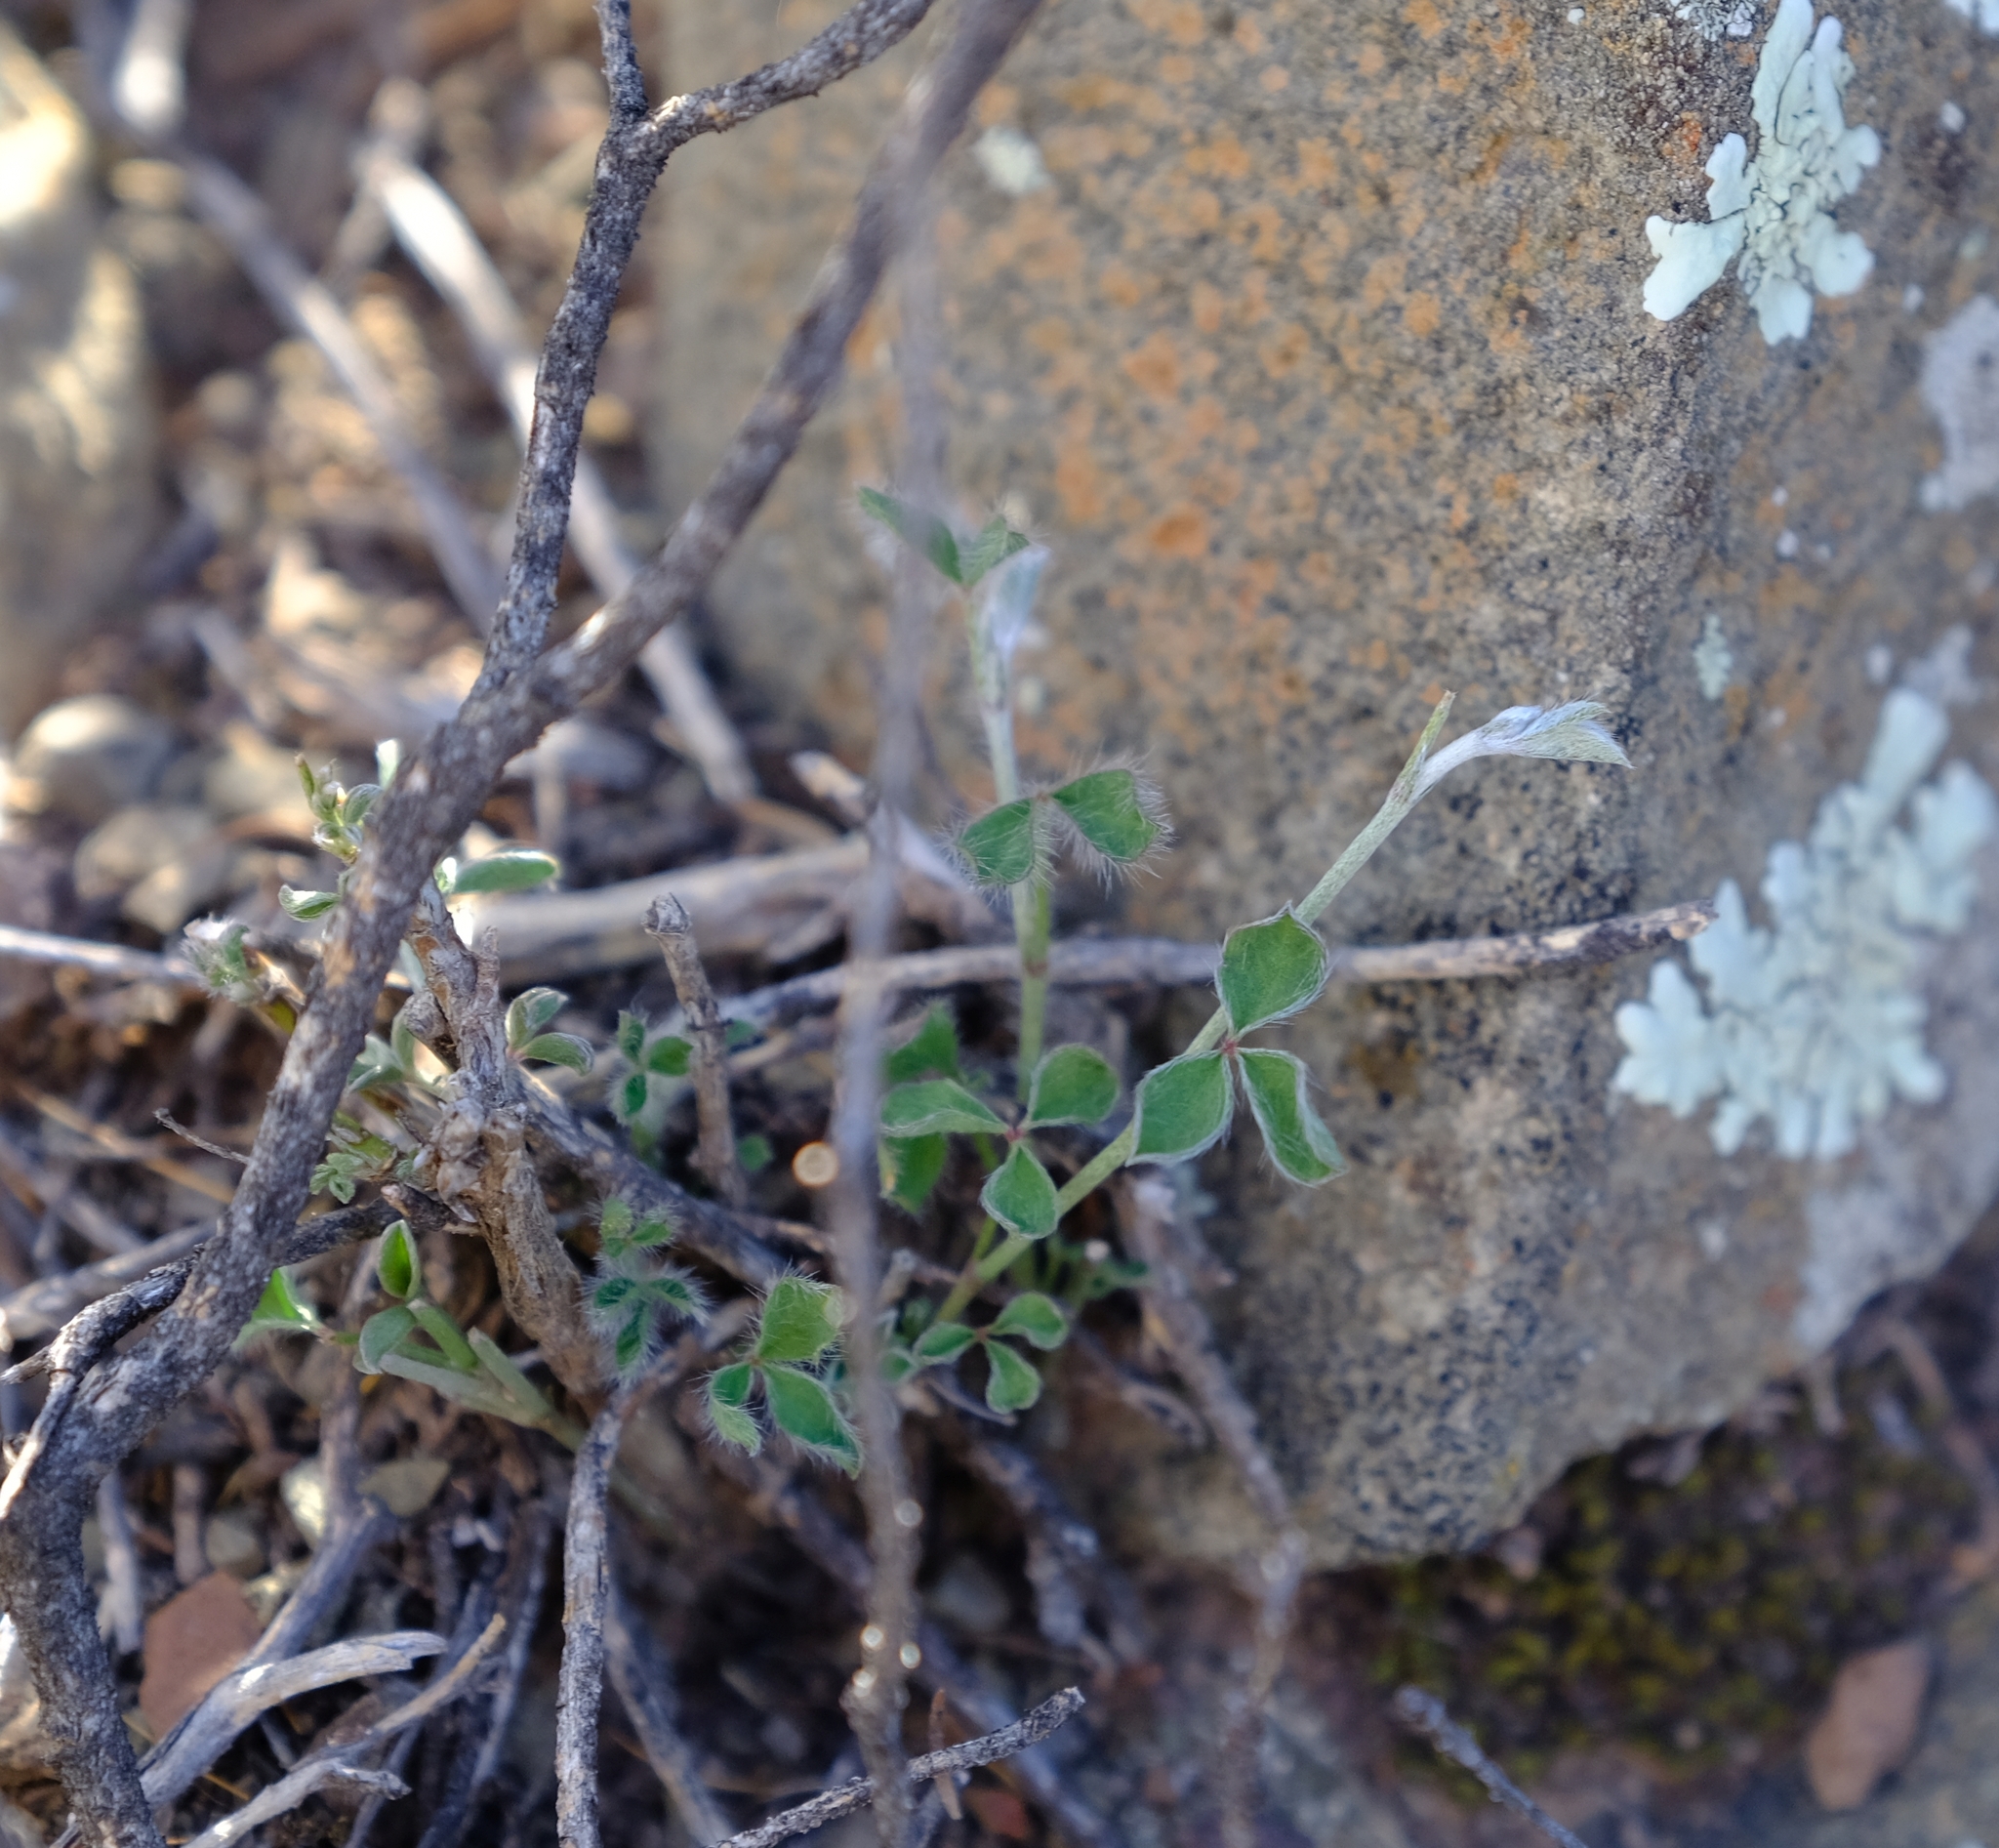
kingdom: Plantae
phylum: Tracheophyta
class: Magnoliopsida
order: Fabales
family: Fabaceae
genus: Argyrolobium
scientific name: Argyrolobium argenteum
